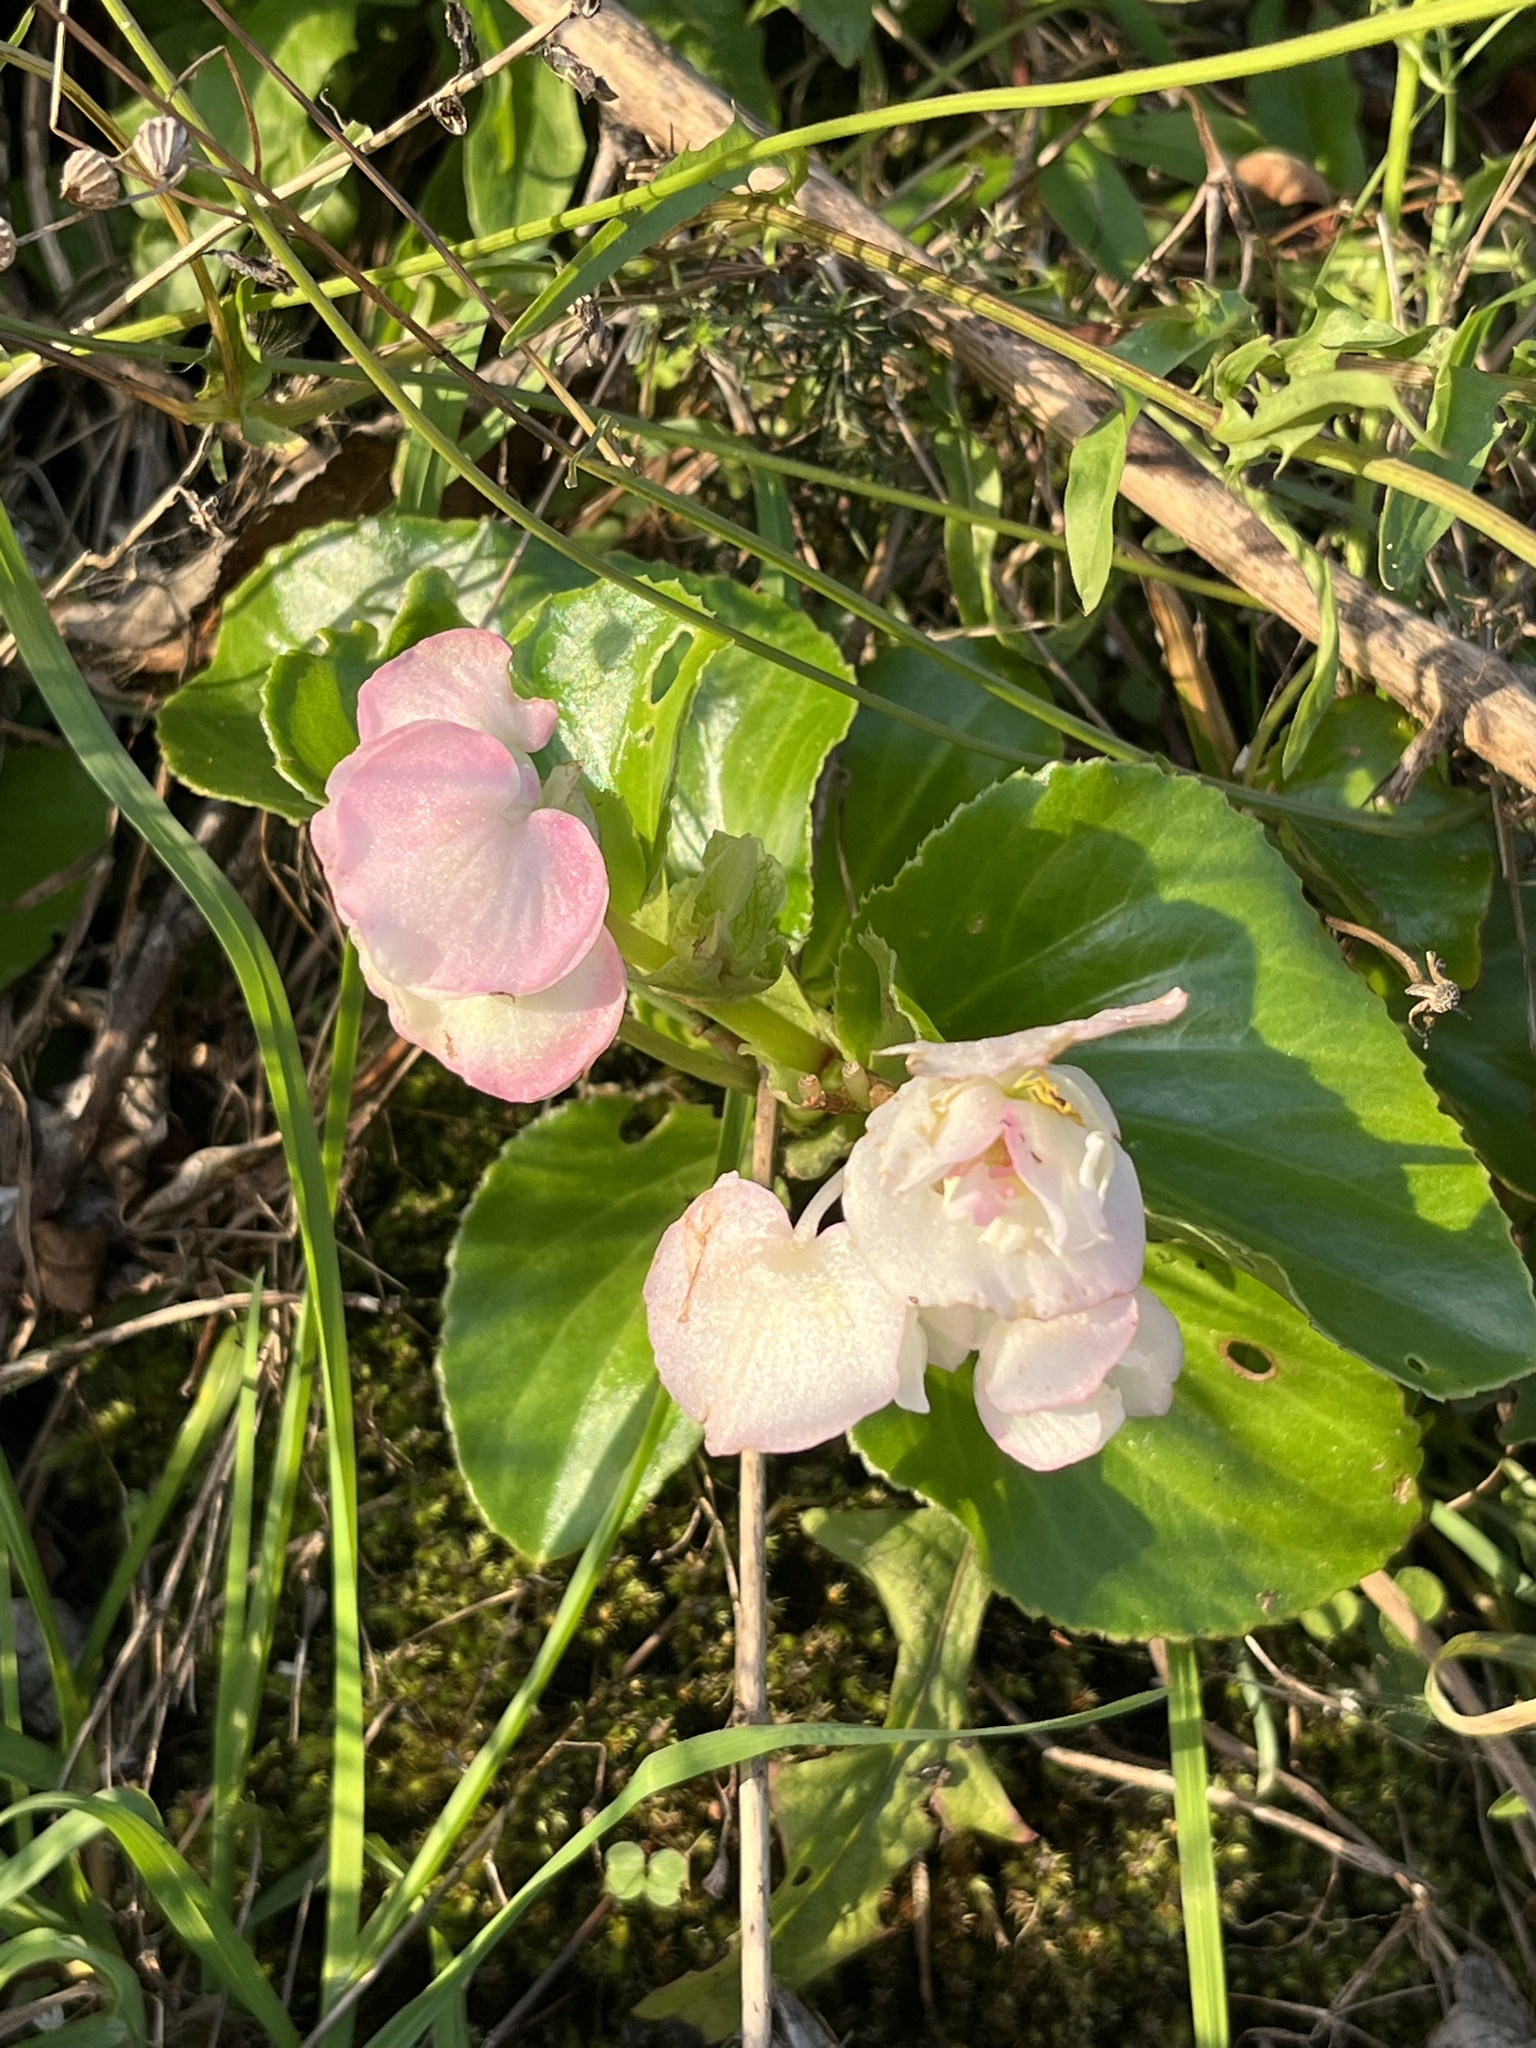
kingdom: Plantae
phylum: Tracheophyta
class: Magnoliopsida
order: Cucurbitales
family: Begoniaceae
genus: Begonia
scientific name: Begonia semperflorens-cultorum
